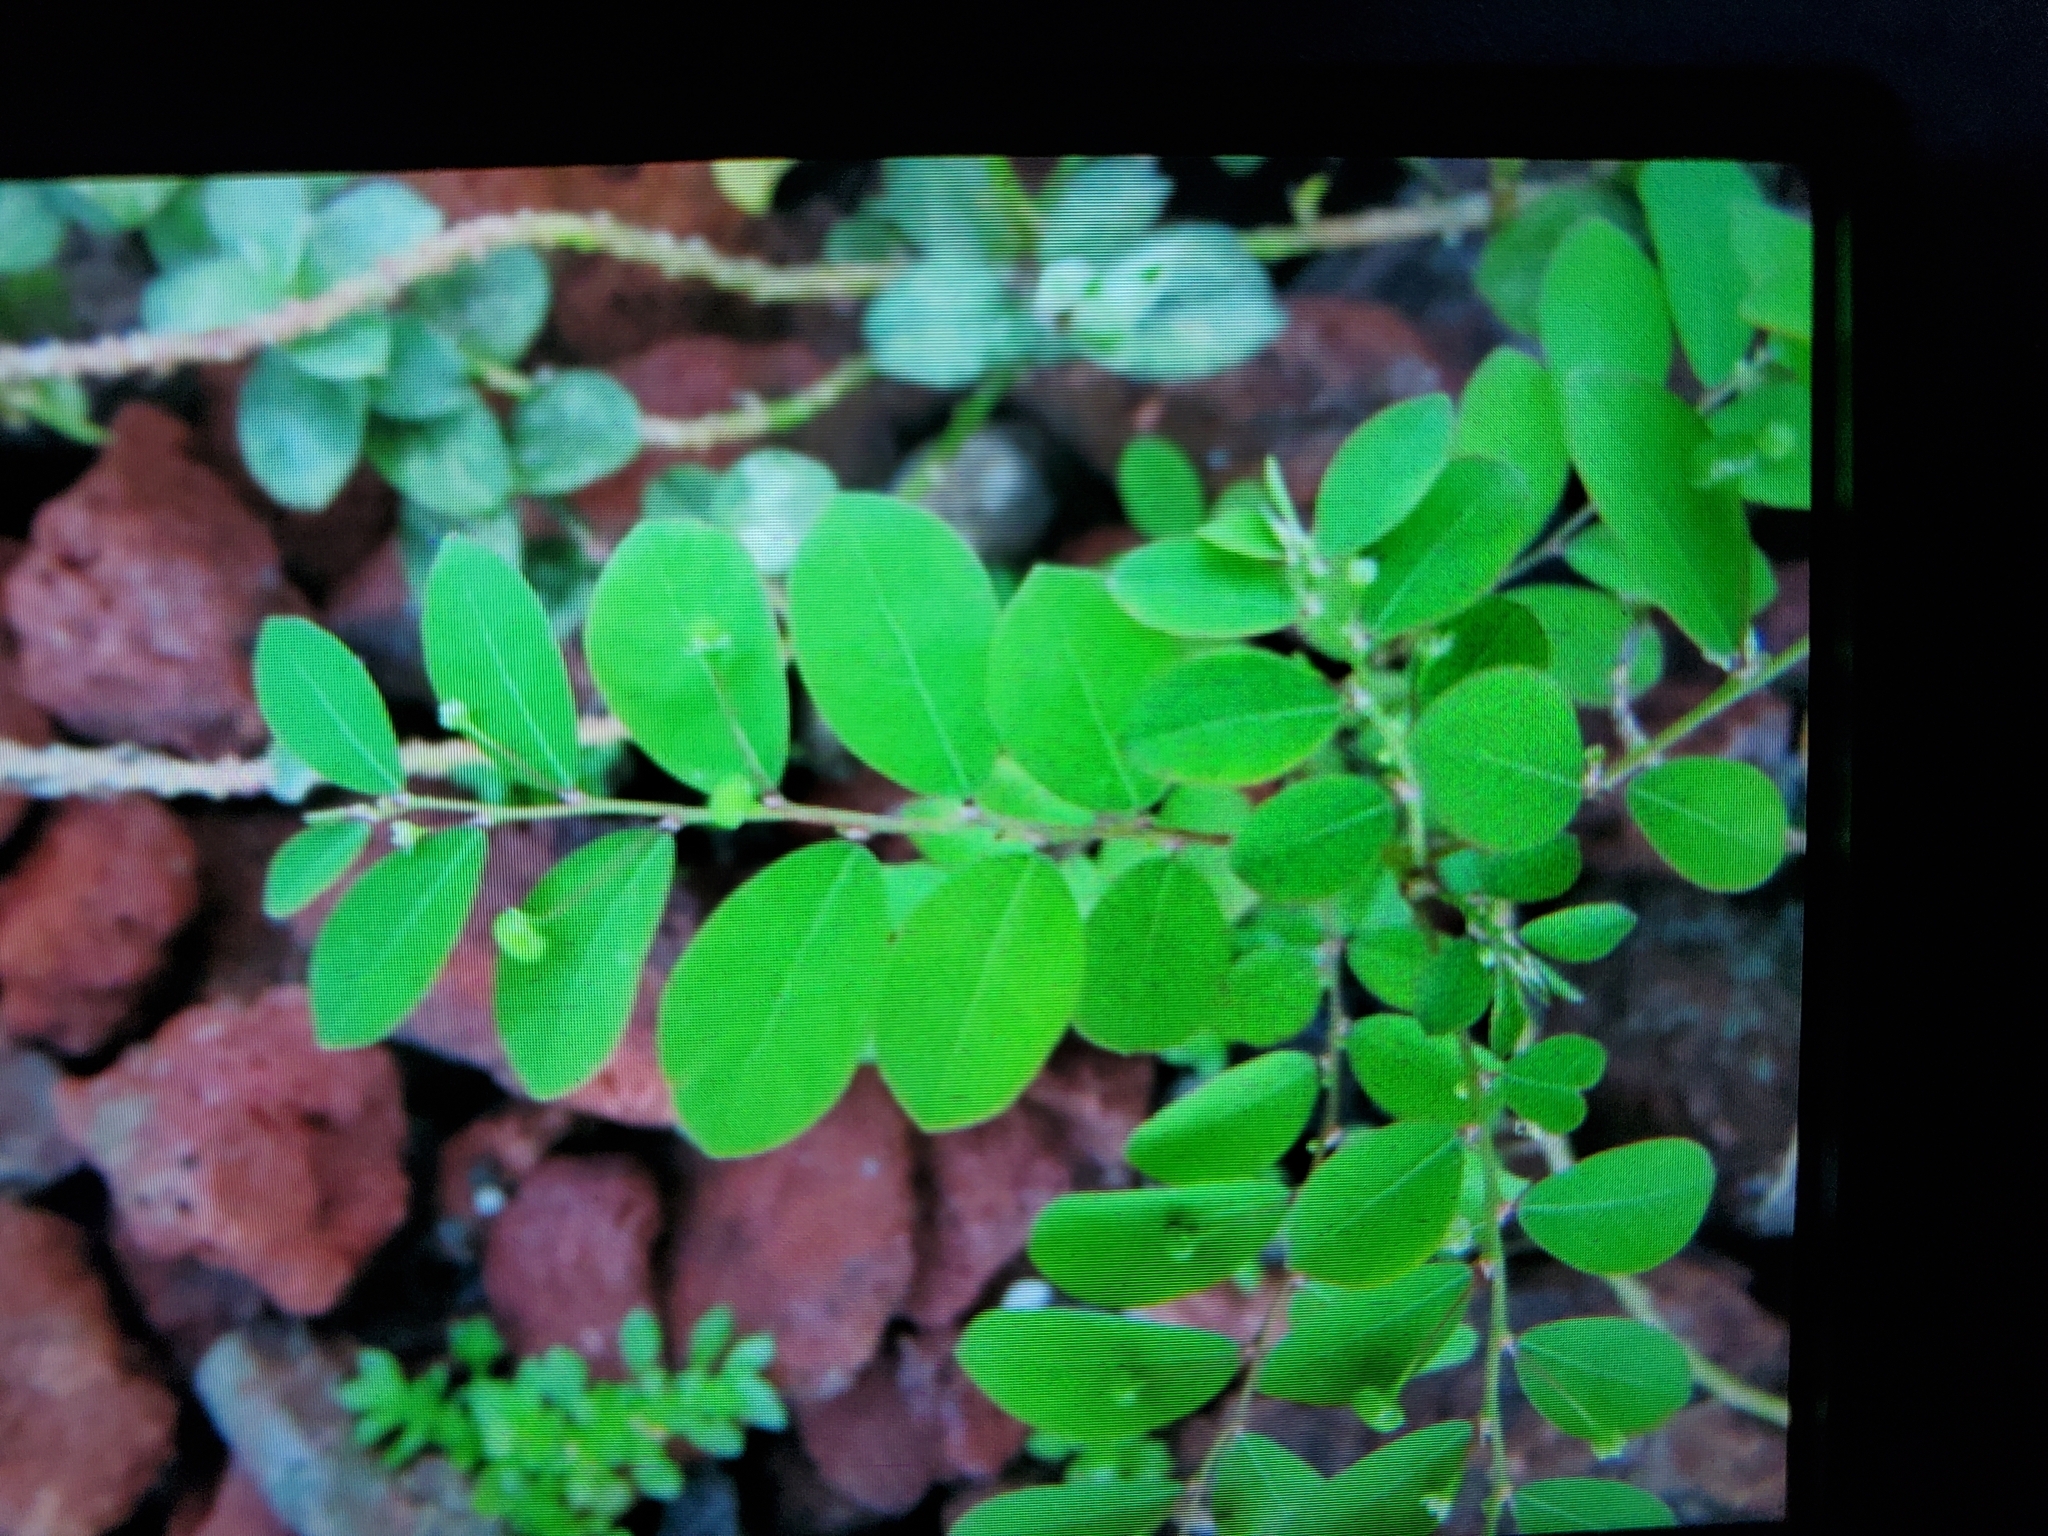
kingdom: Plantae
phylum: Tracheophyta
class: Magnoliopsida
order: Malpighiales
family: Phyllanthaceae
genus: Phyllanthus
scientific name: Phyllanthus tenellus
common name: Mascarene island leaf-flower
